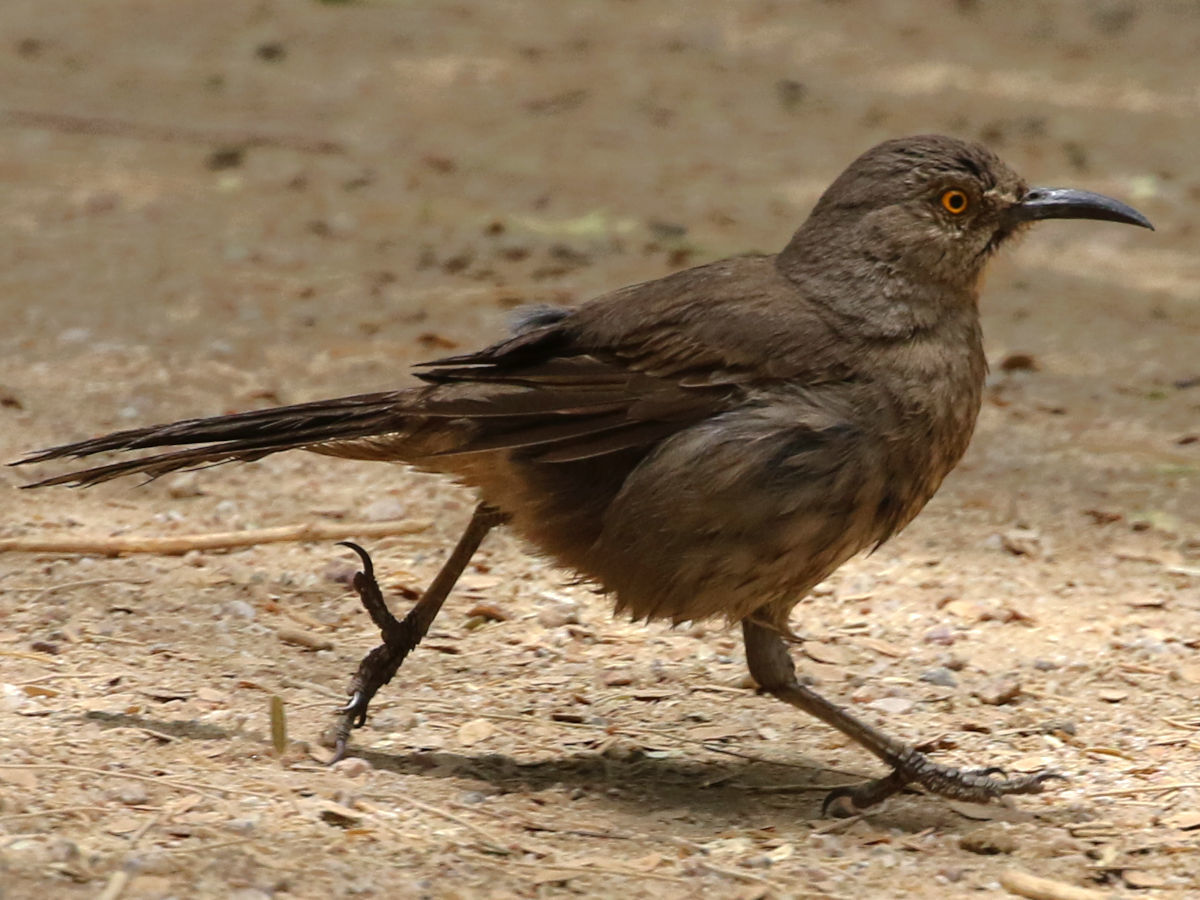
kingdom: Animalia
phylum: Chordata
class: Aves
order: Passeriformes
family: Mimidae
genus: Toxostoma
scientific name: Toxostoma curvirostre
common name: Curve-billed thrasher
